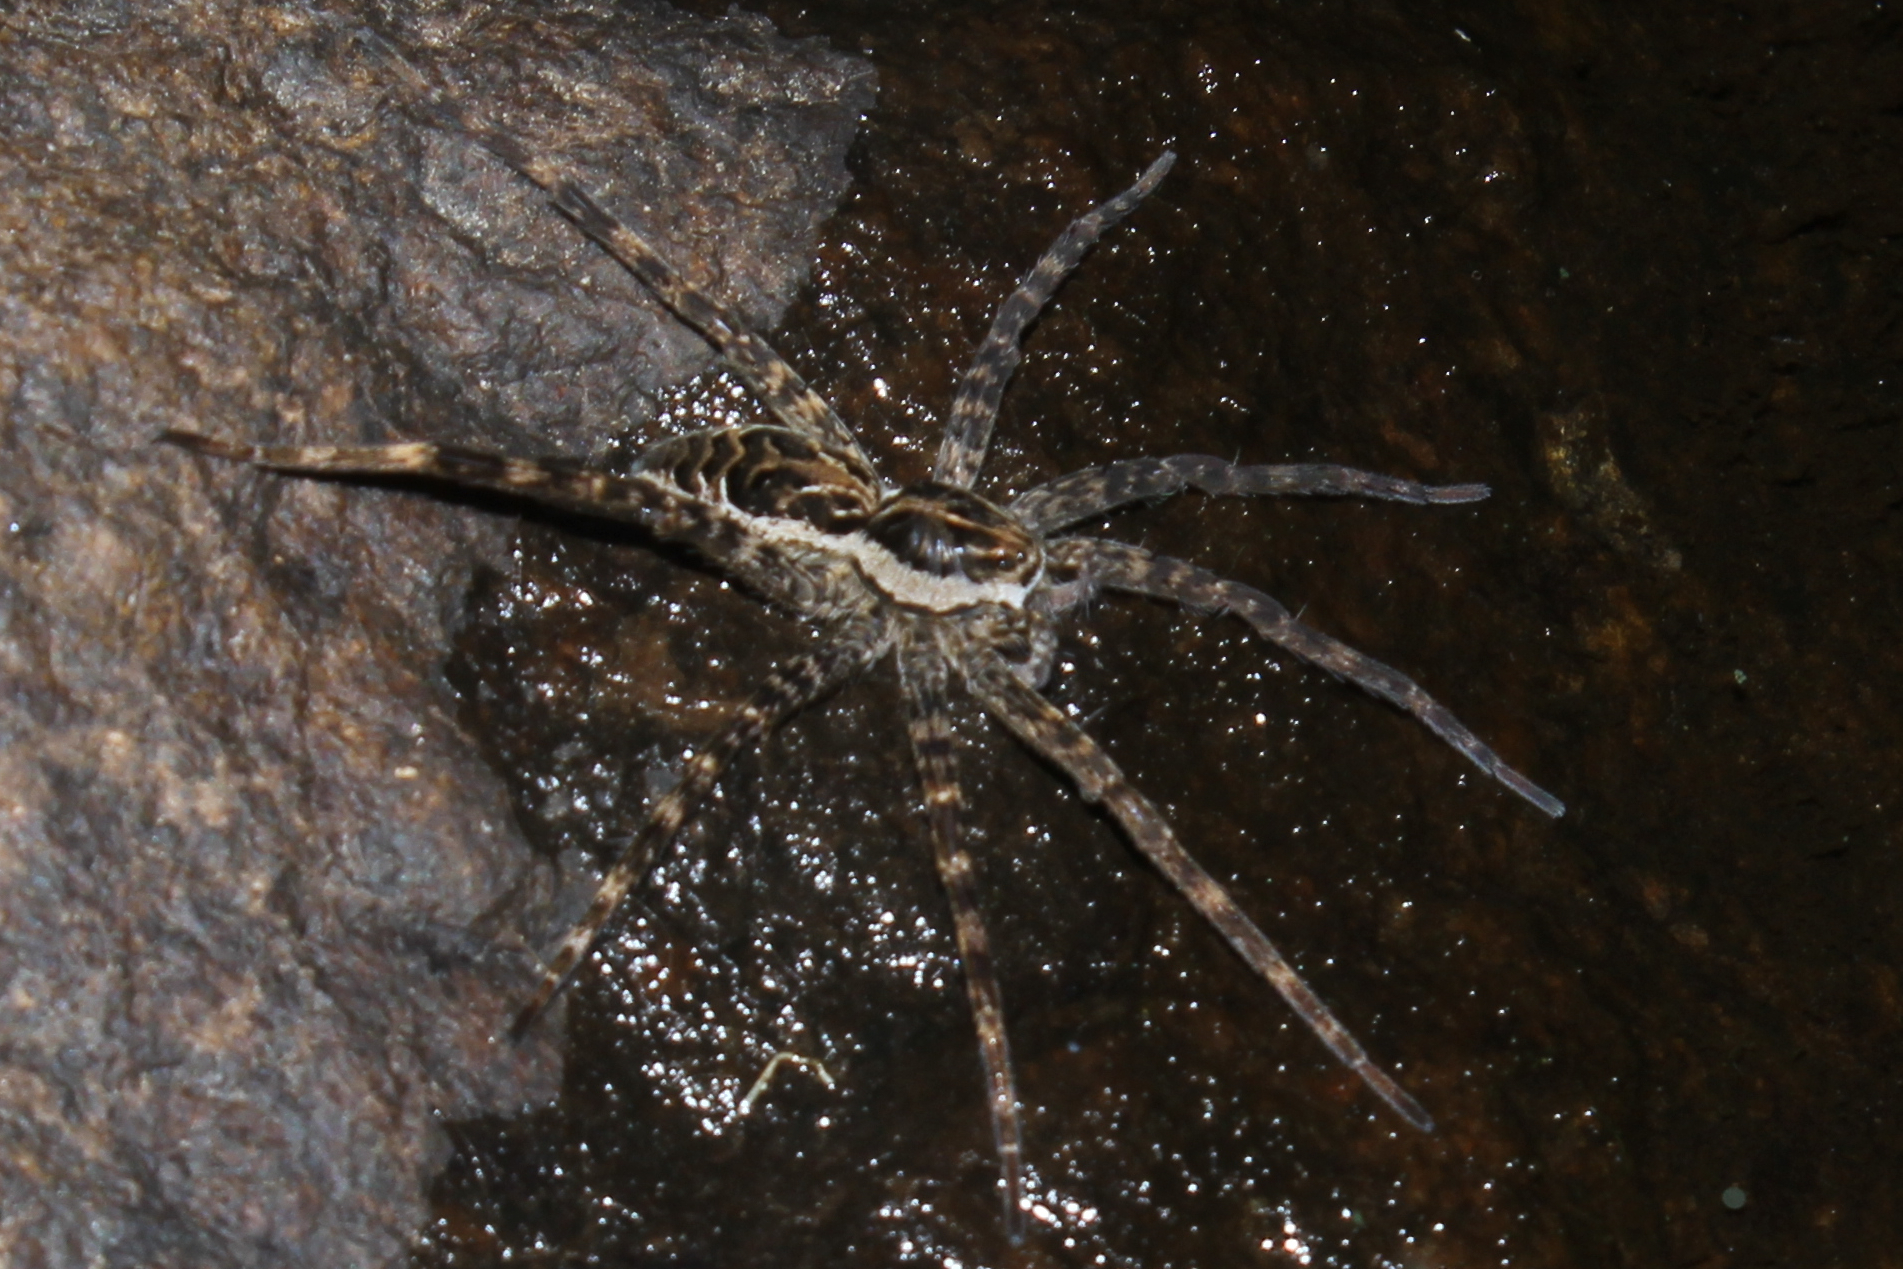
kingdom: Animalia
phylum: Arthropoda
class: Arachnida
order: Araneae
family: Pisauridae
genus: Dolomedes
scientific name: Dolomedes scriptus
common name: Striped fishing spider
